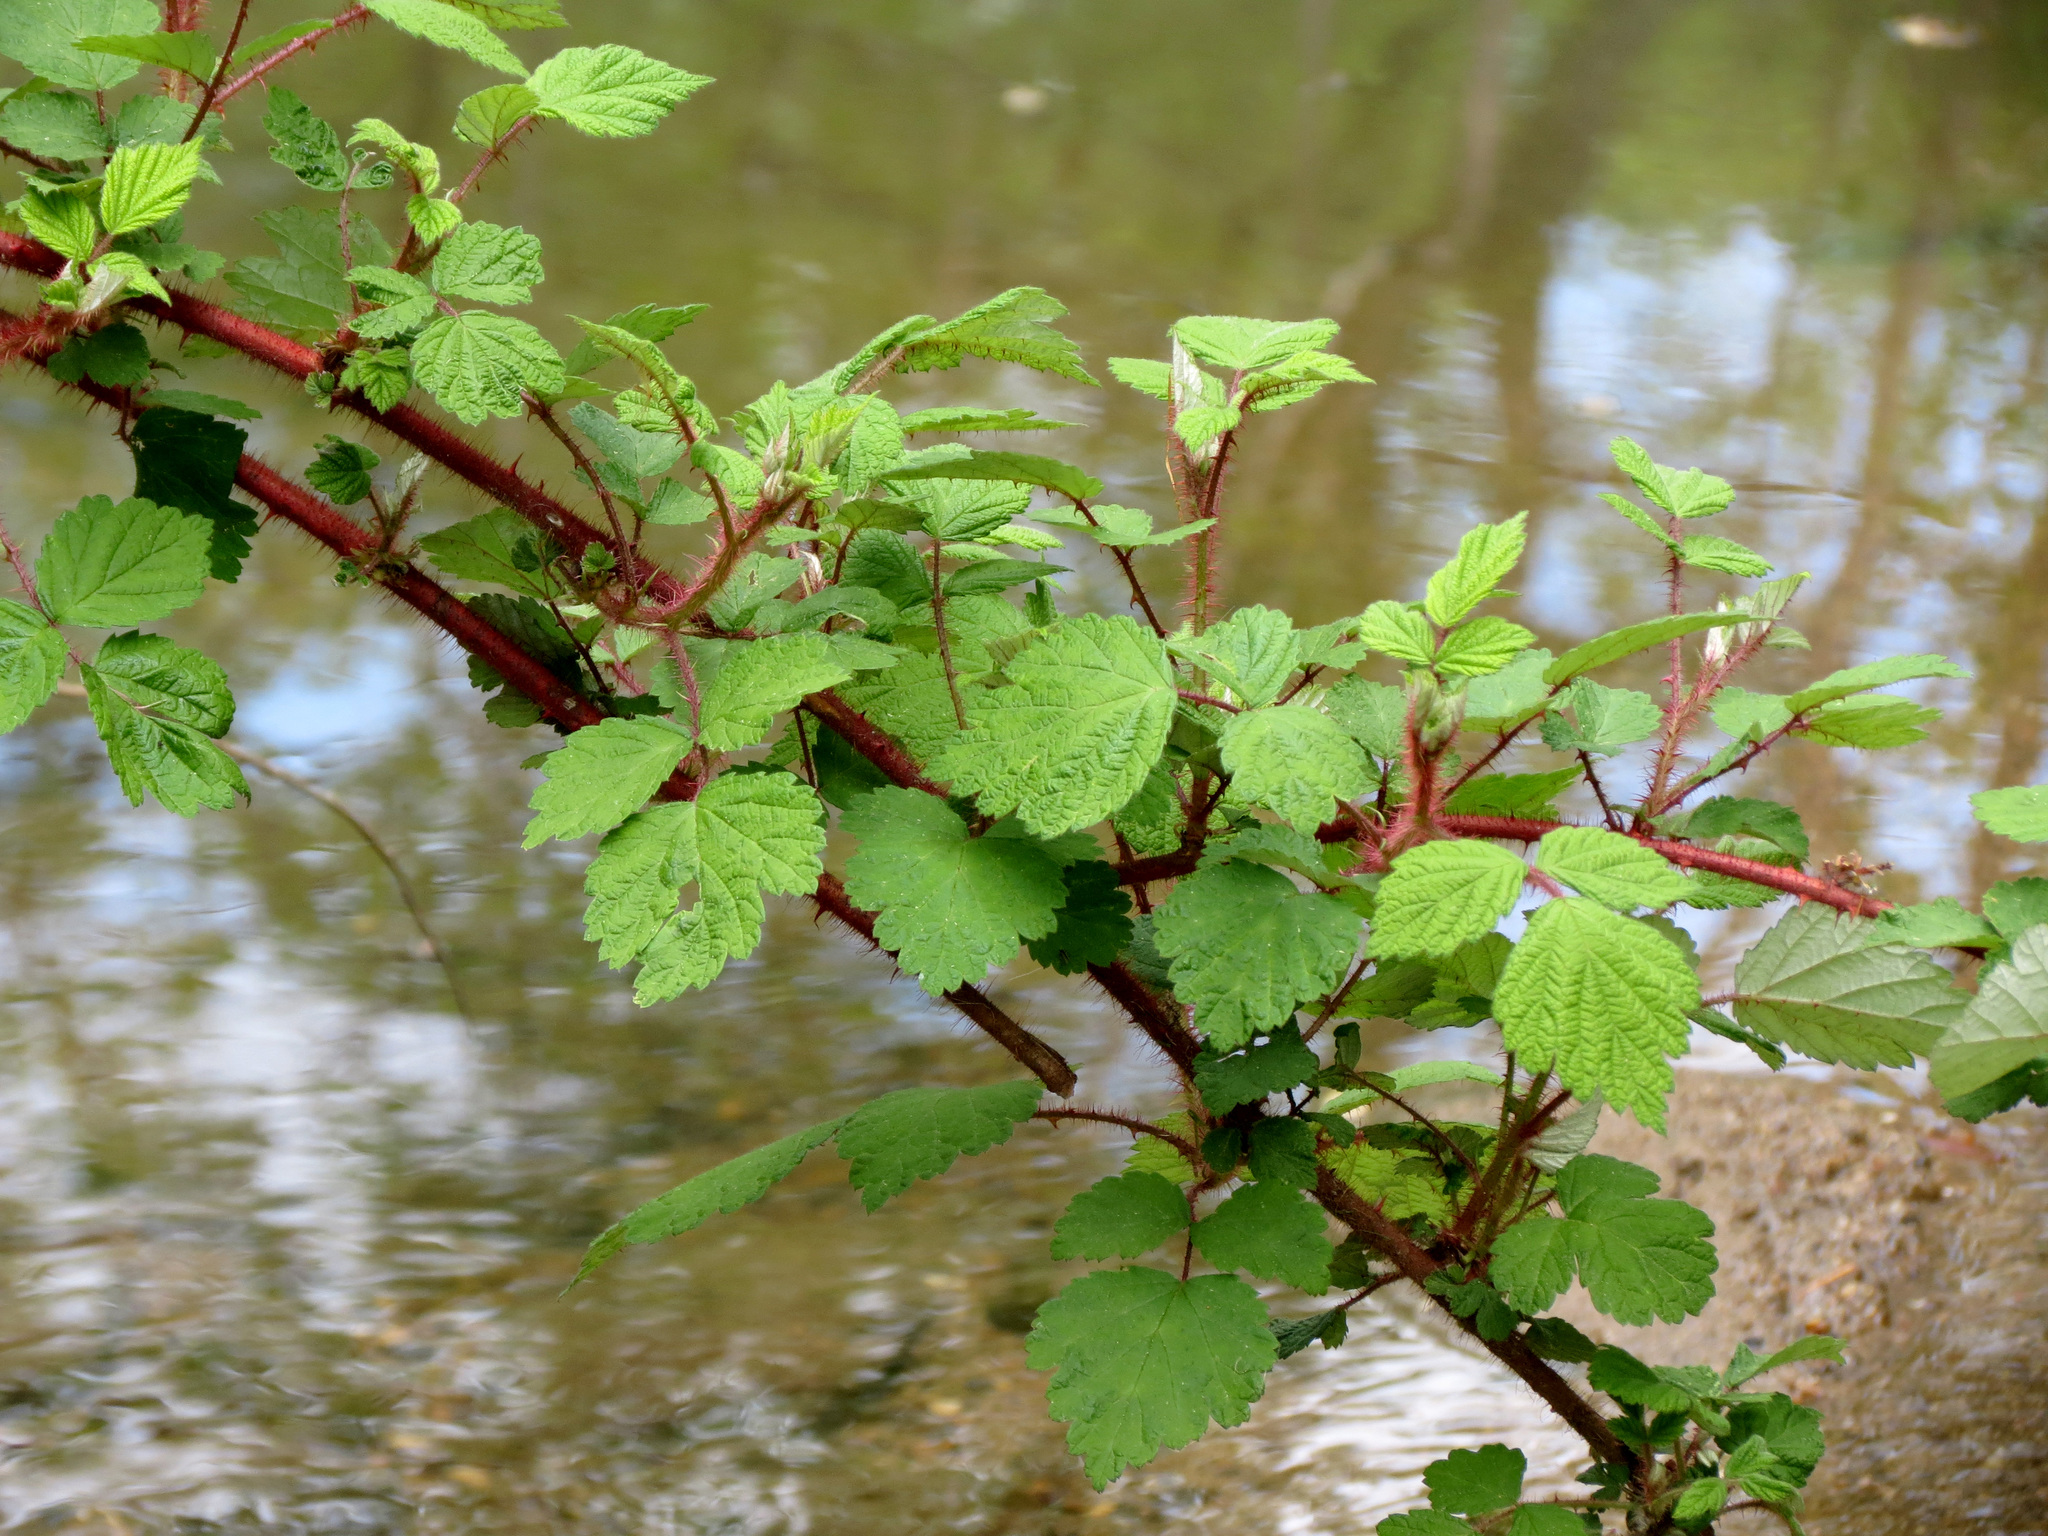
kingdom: Plantae
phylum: Tracheophyta
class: Magnoliopsida
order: Rosales
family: Rosaceae
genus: Rubus
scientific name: Rubus phoenicolasius
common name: Japanese wineberry
